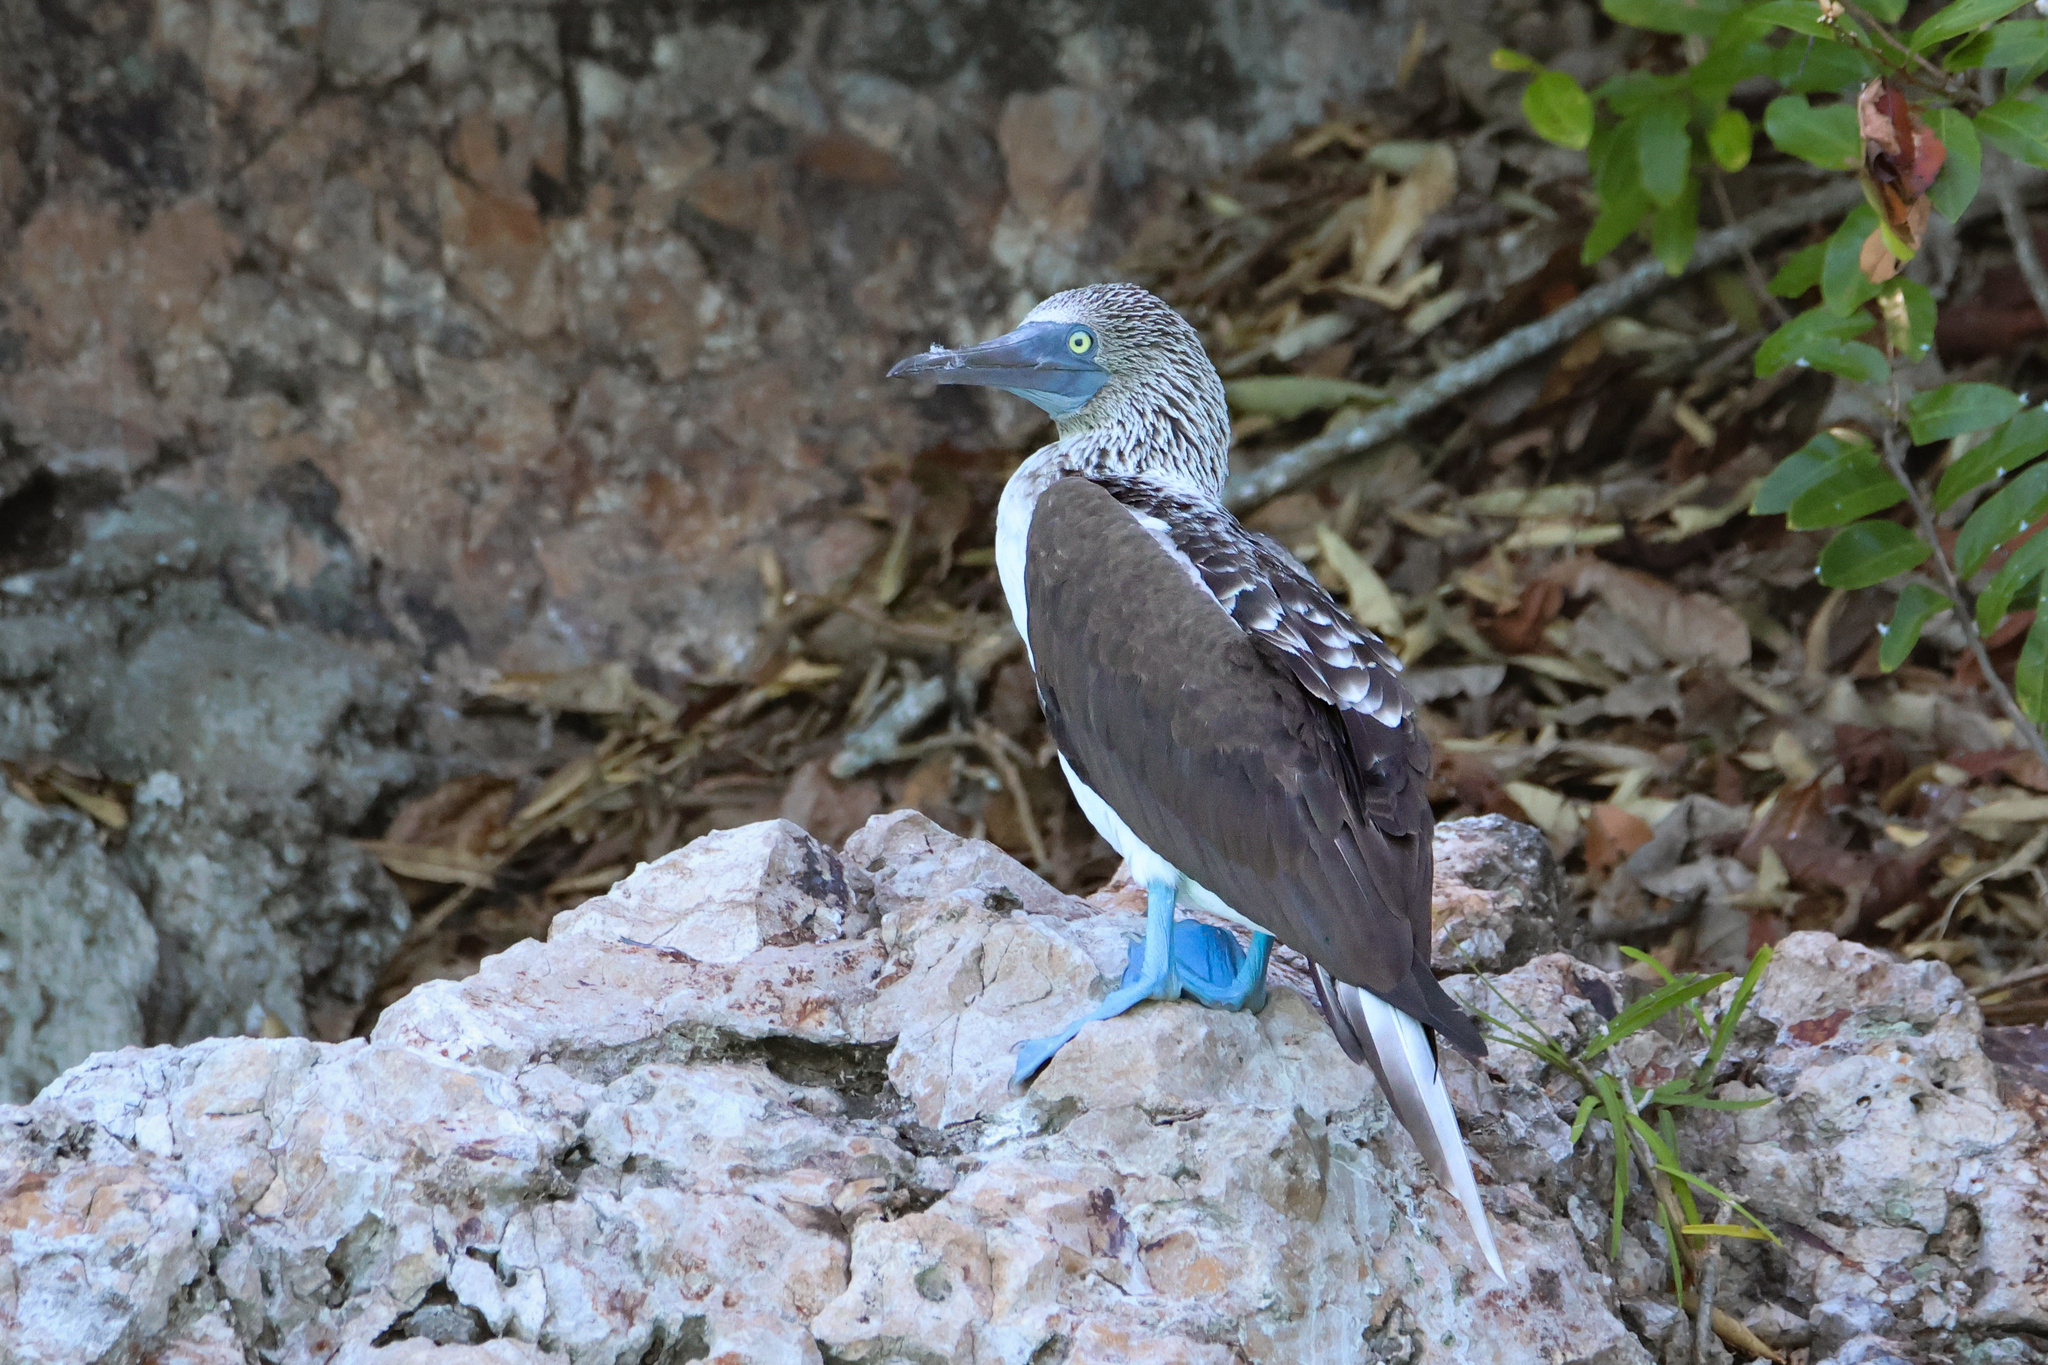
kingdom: Animalia
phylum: Chordata
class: Aves
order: Suliformes
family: Sulidae
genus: Sula
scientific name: Sula nebouxii
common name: Blue-footed booby
